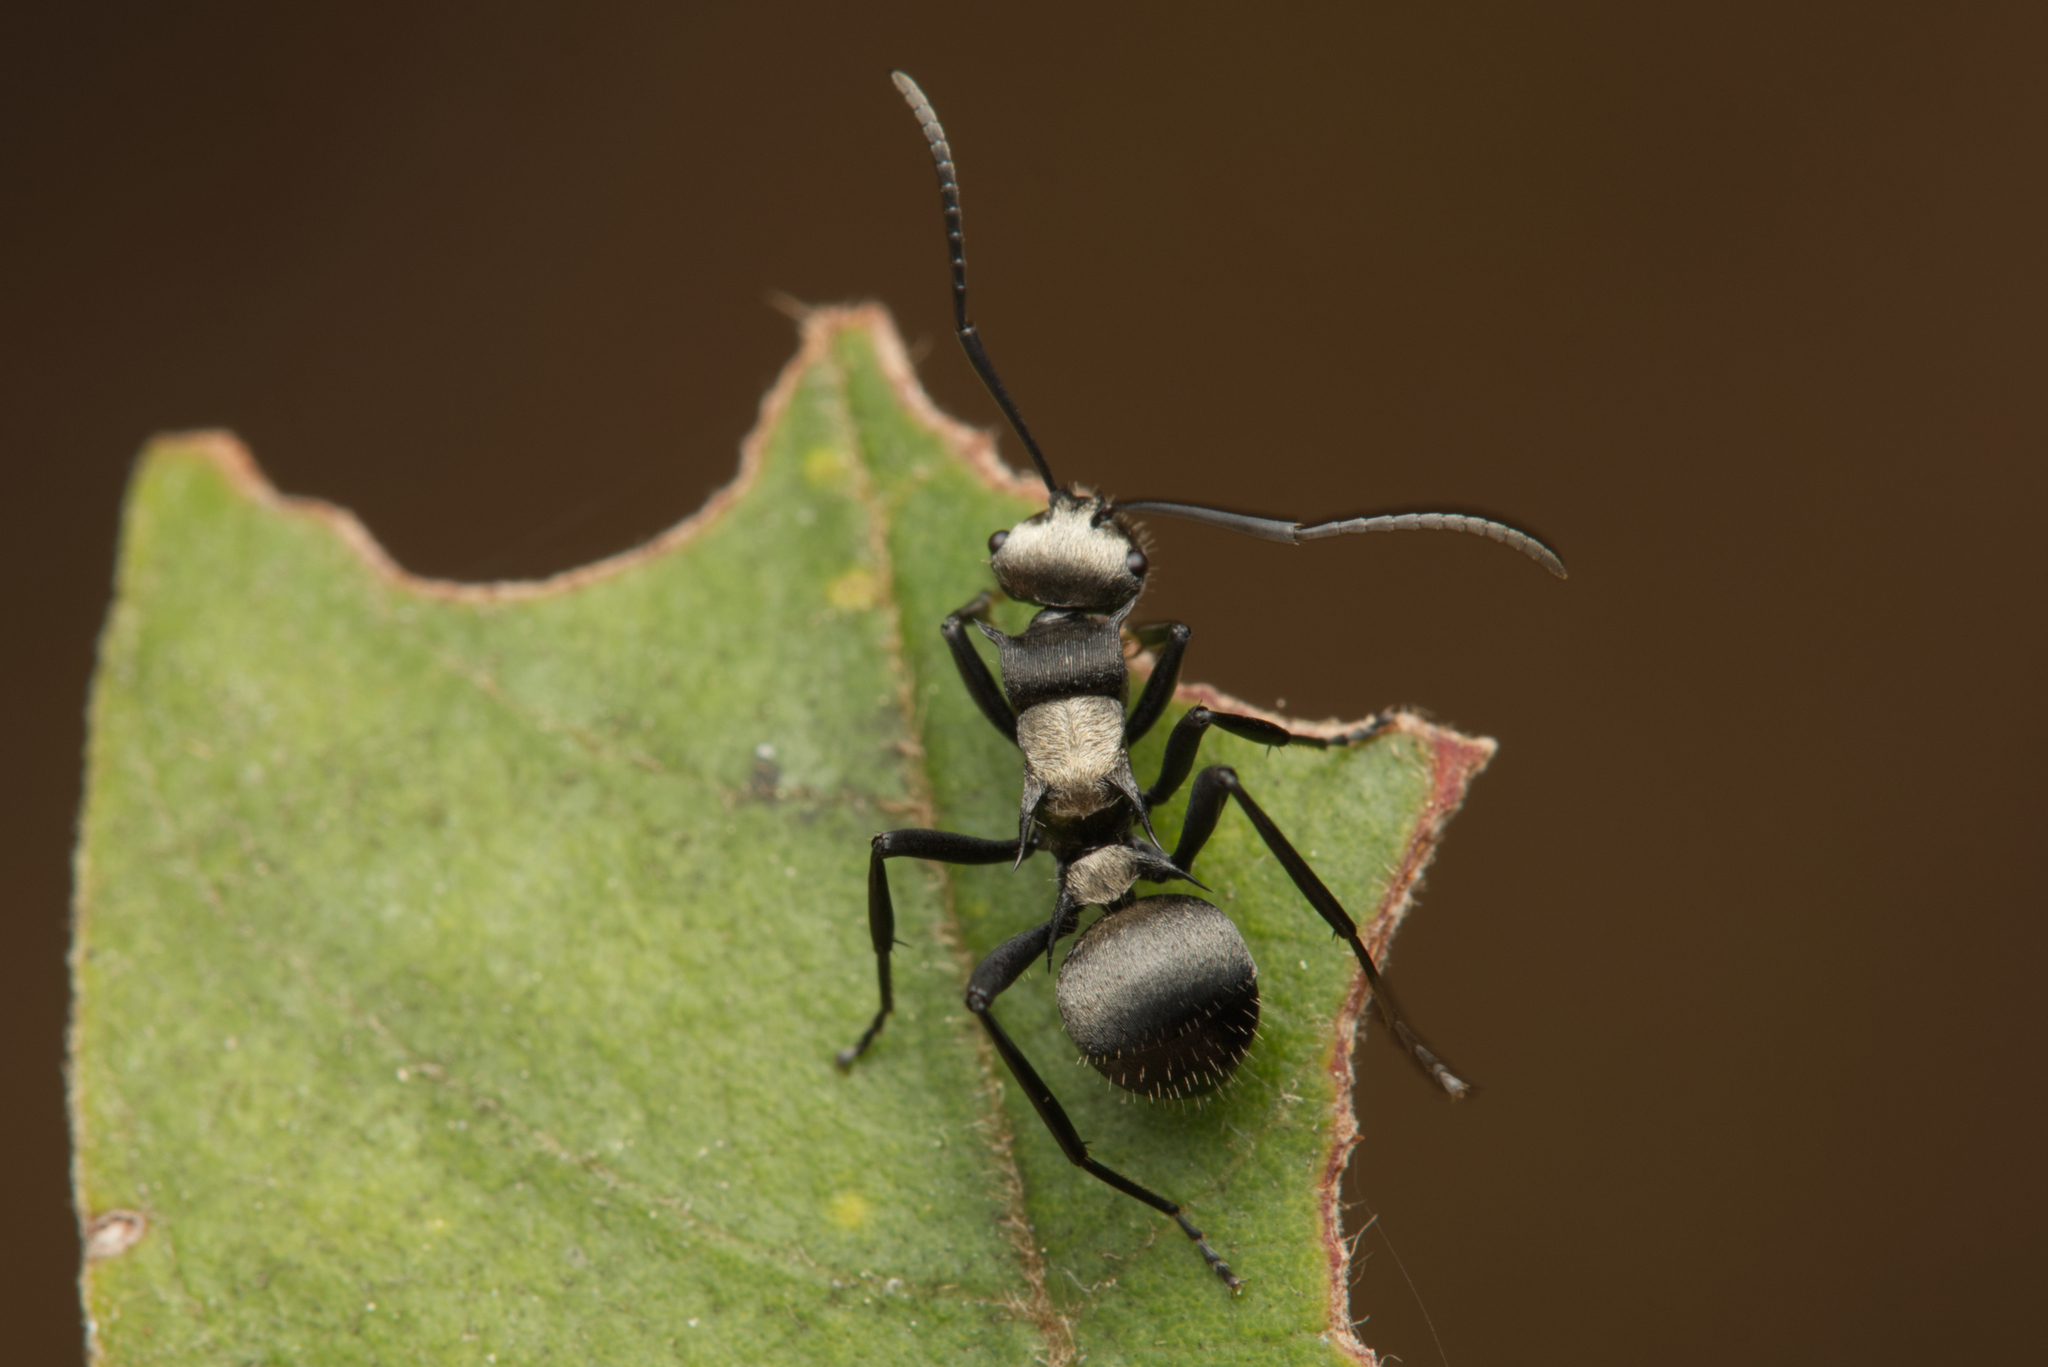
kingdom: Animalia
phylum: Arthropoda
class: Insecta
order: Hymenoptera
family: Formicidae
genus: Polyrhachis
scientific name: Polyrhachis daemeli
